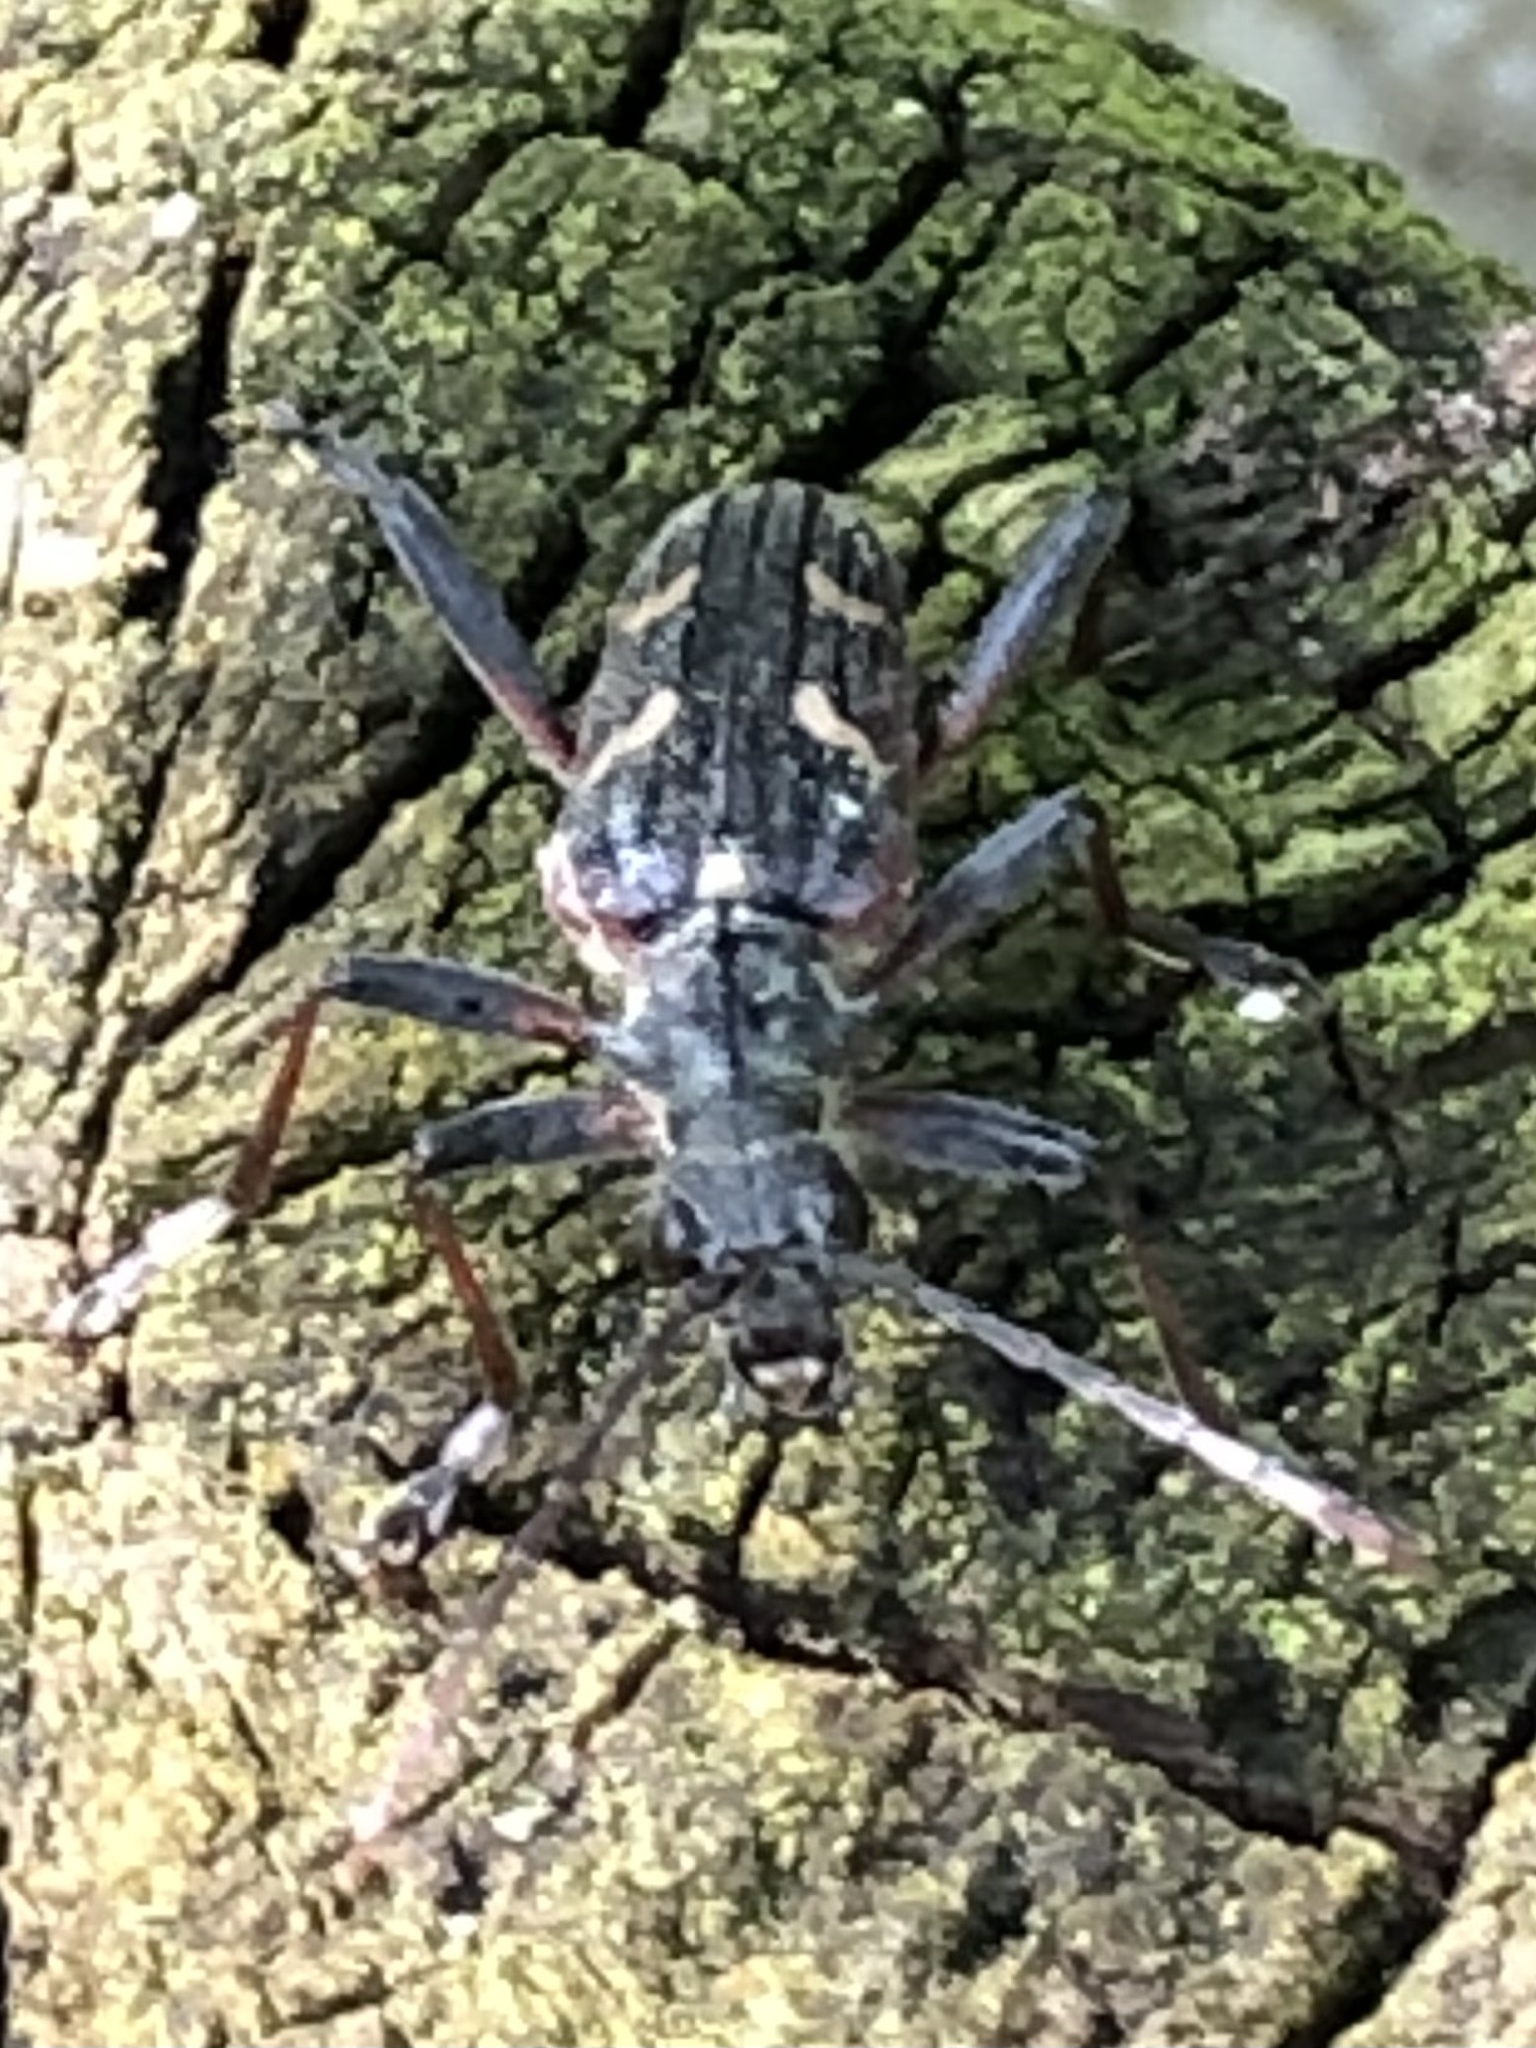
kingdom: Animalia
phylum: Arthropoda
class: Insecta
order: Coleoptera
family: Cerambycidae
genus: Rhagium
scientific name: Rhagium bifasciatum
